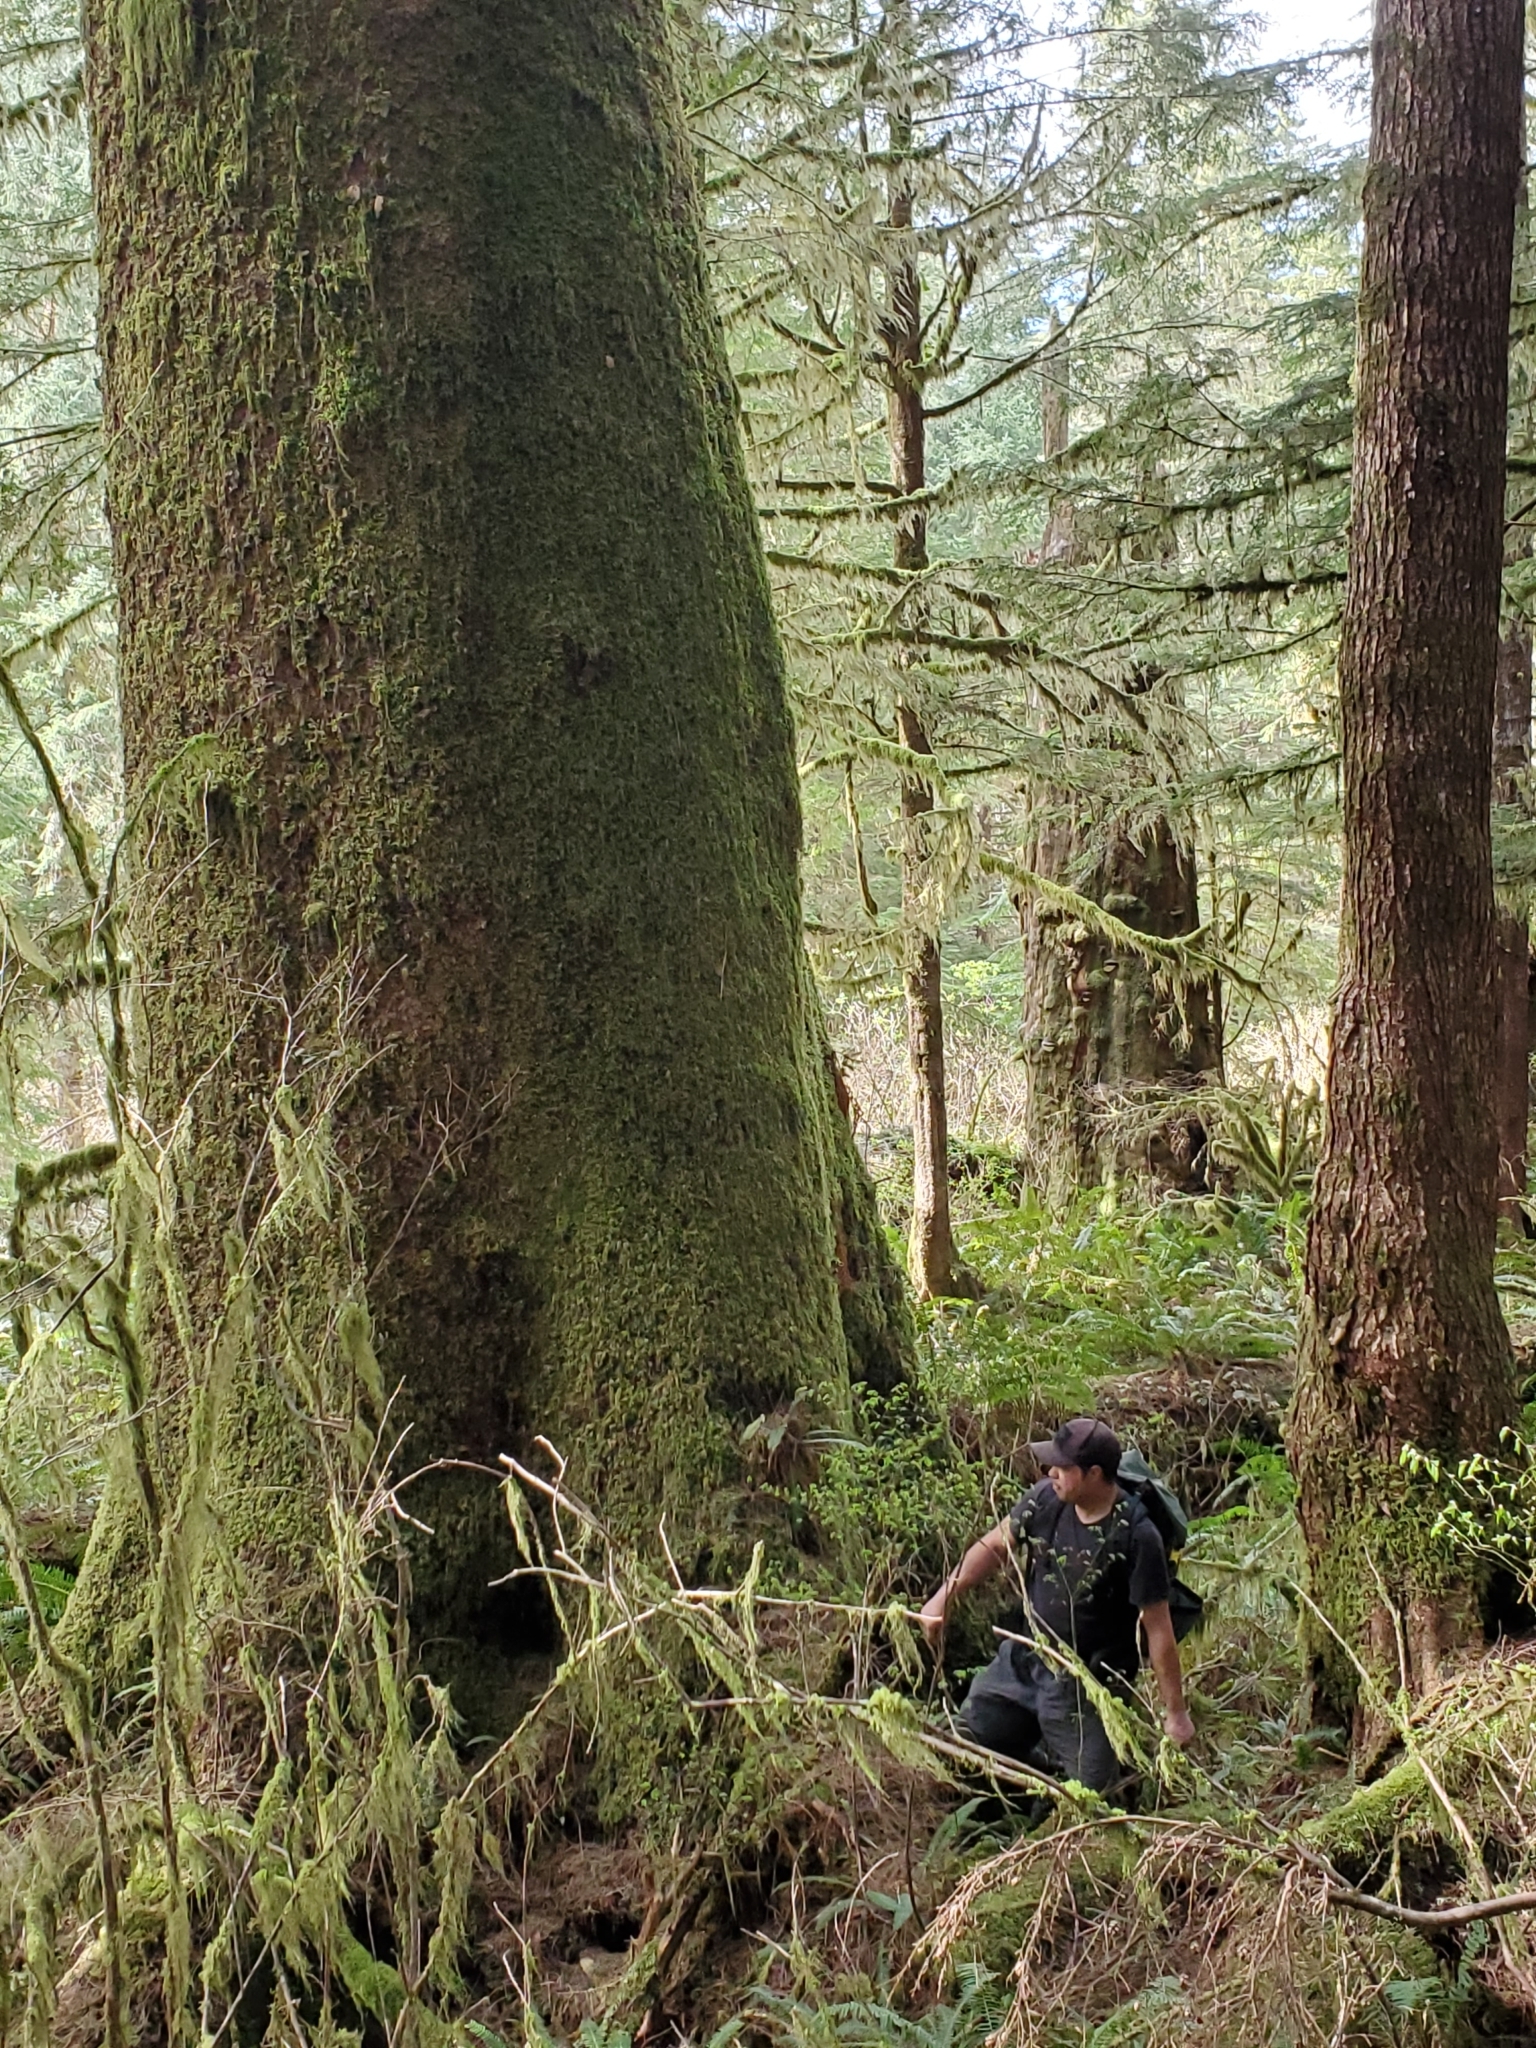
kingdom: Plantae
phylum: Tracheophyta
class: Pinopsida
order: Pinales
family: Pinaceae
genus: Picea
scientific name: Picea sitchensis
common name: Sitka spruce
